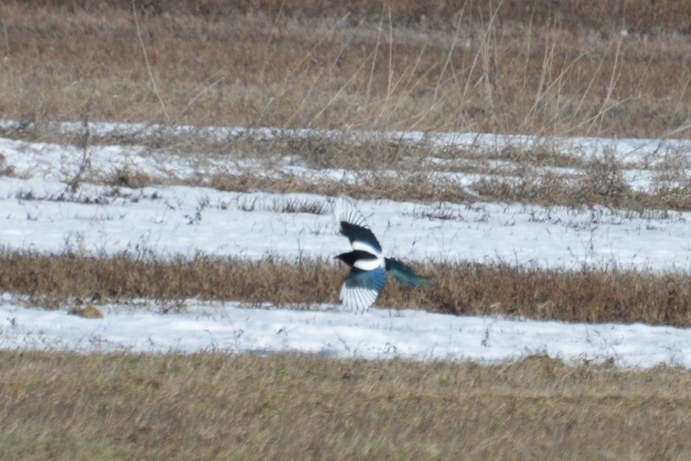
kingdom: Animalia
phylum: Chordata
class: Aves
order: Passeriformes
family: Corvidae
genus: Pica
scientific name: Pica pica
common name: Eurasian magpie
